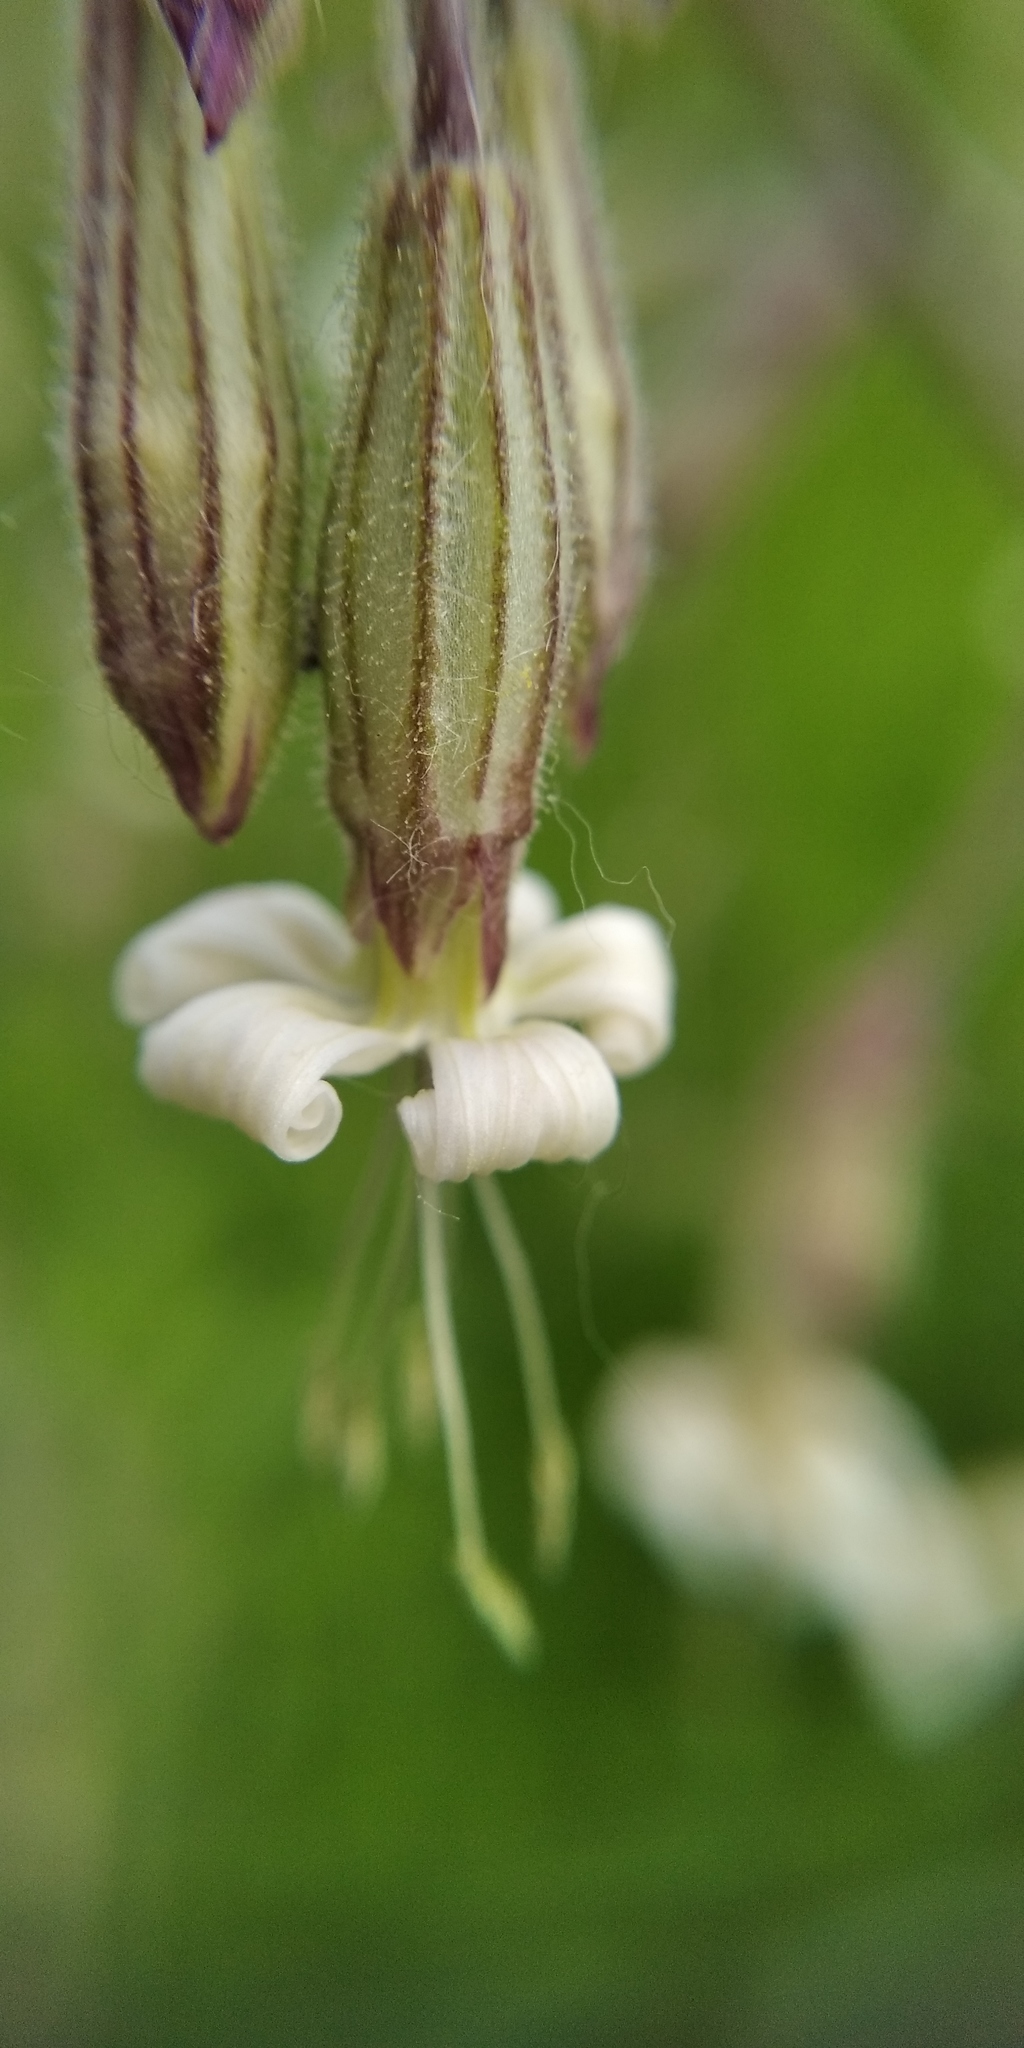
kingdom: Plantae
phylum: Tracheophyta
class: Magnoliopsida
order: Caryophyllales
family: Caryophyllaceae
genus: Silene
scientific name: Silene nutans
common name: Nottingham catchfly
